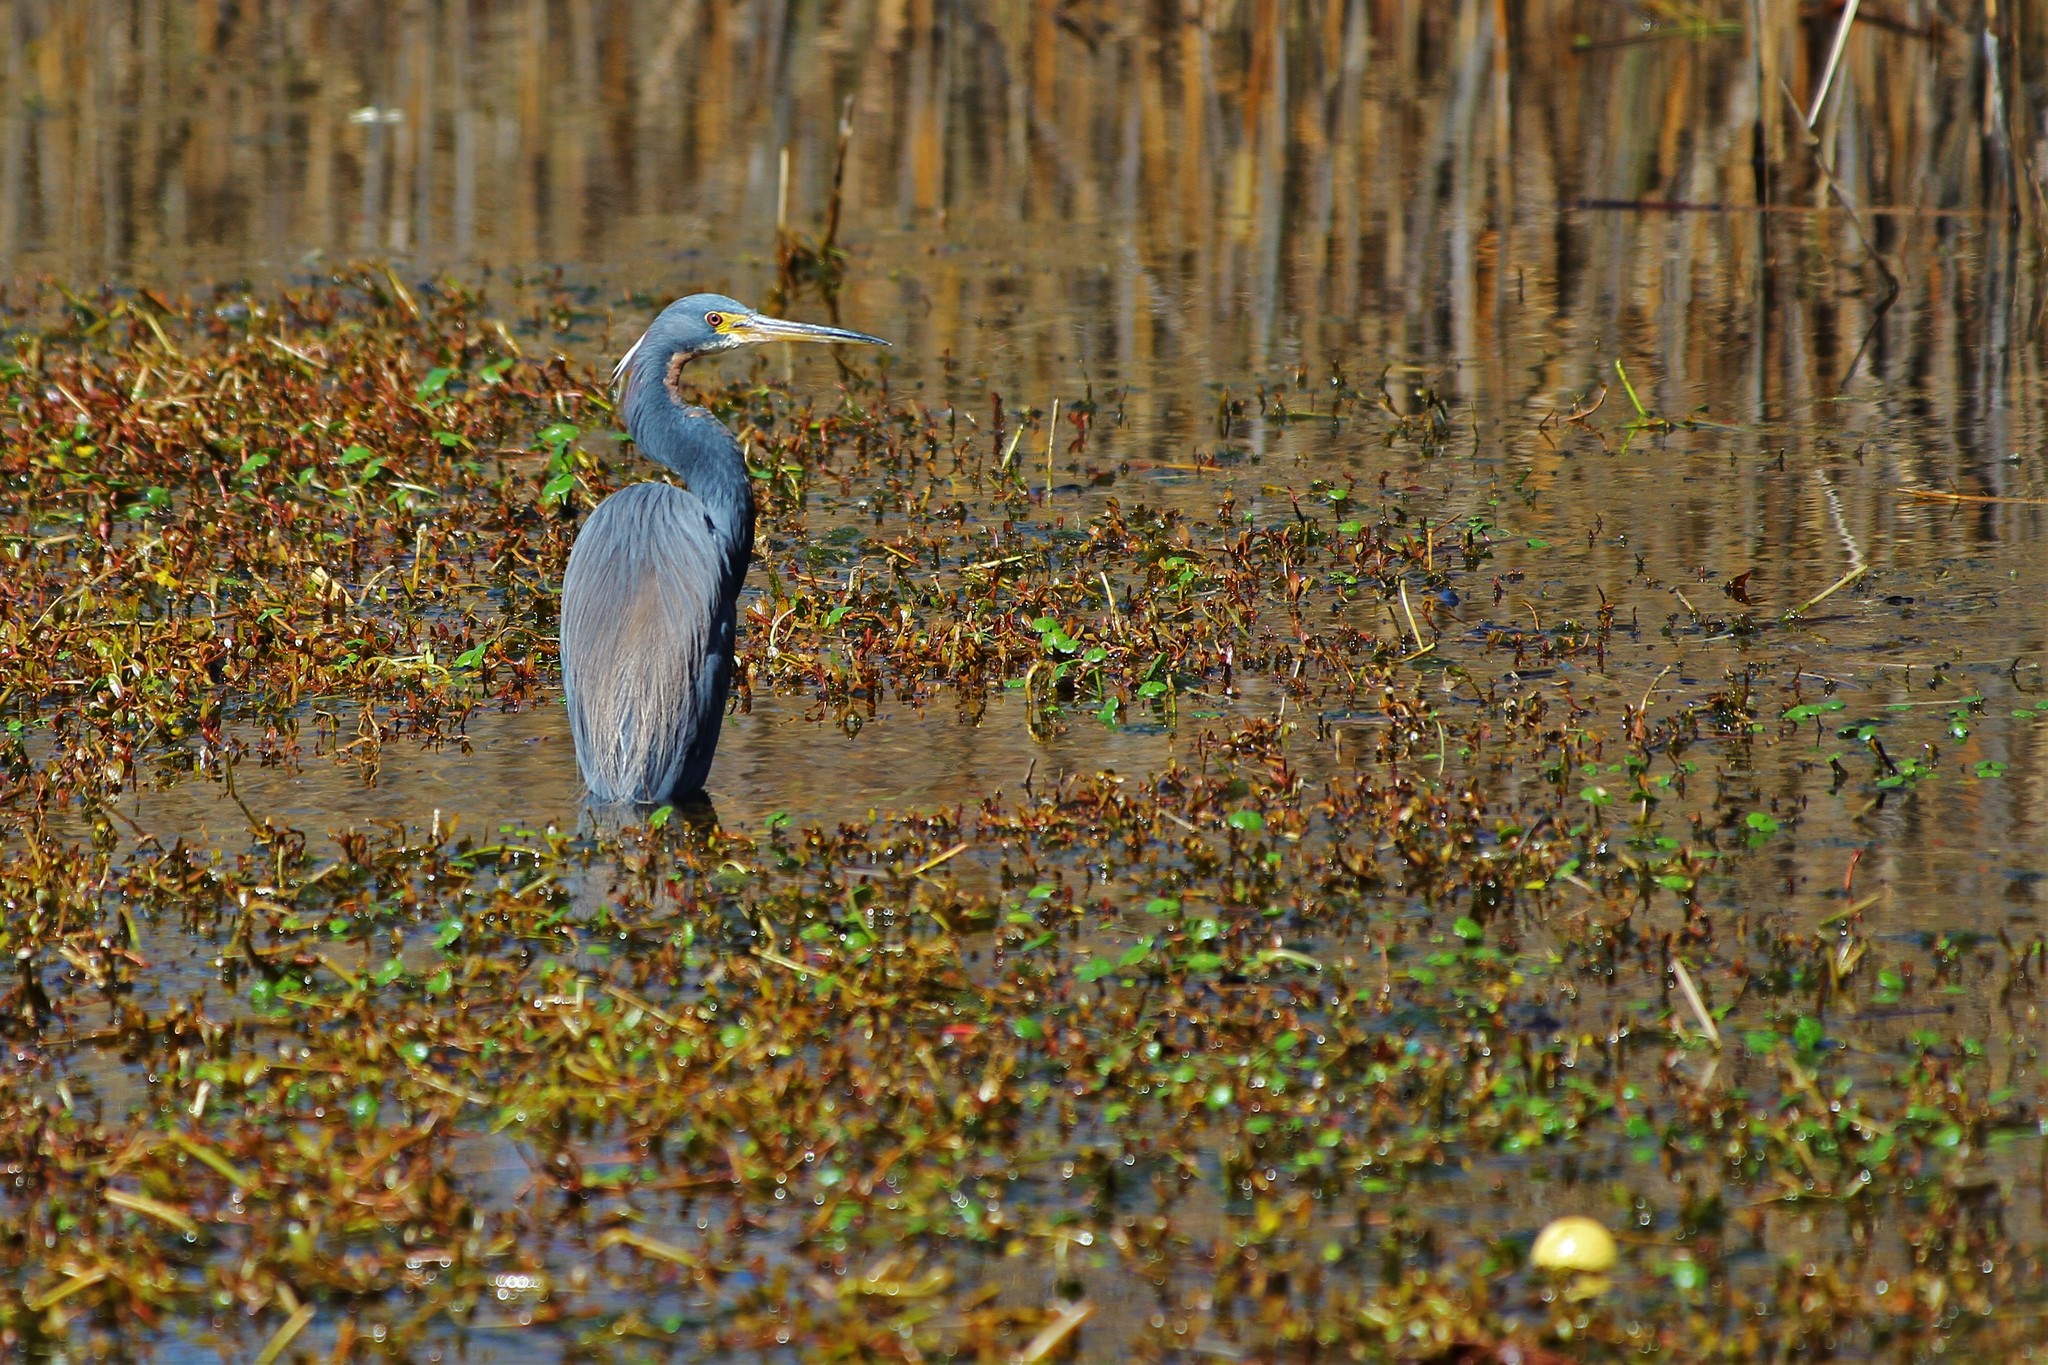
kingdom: Animalia
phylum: Chordata
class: Aves
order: Pelecaniformes
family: Ardeidae
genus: Egretta
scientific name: Egretta tricolor
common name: Tricolored heron
